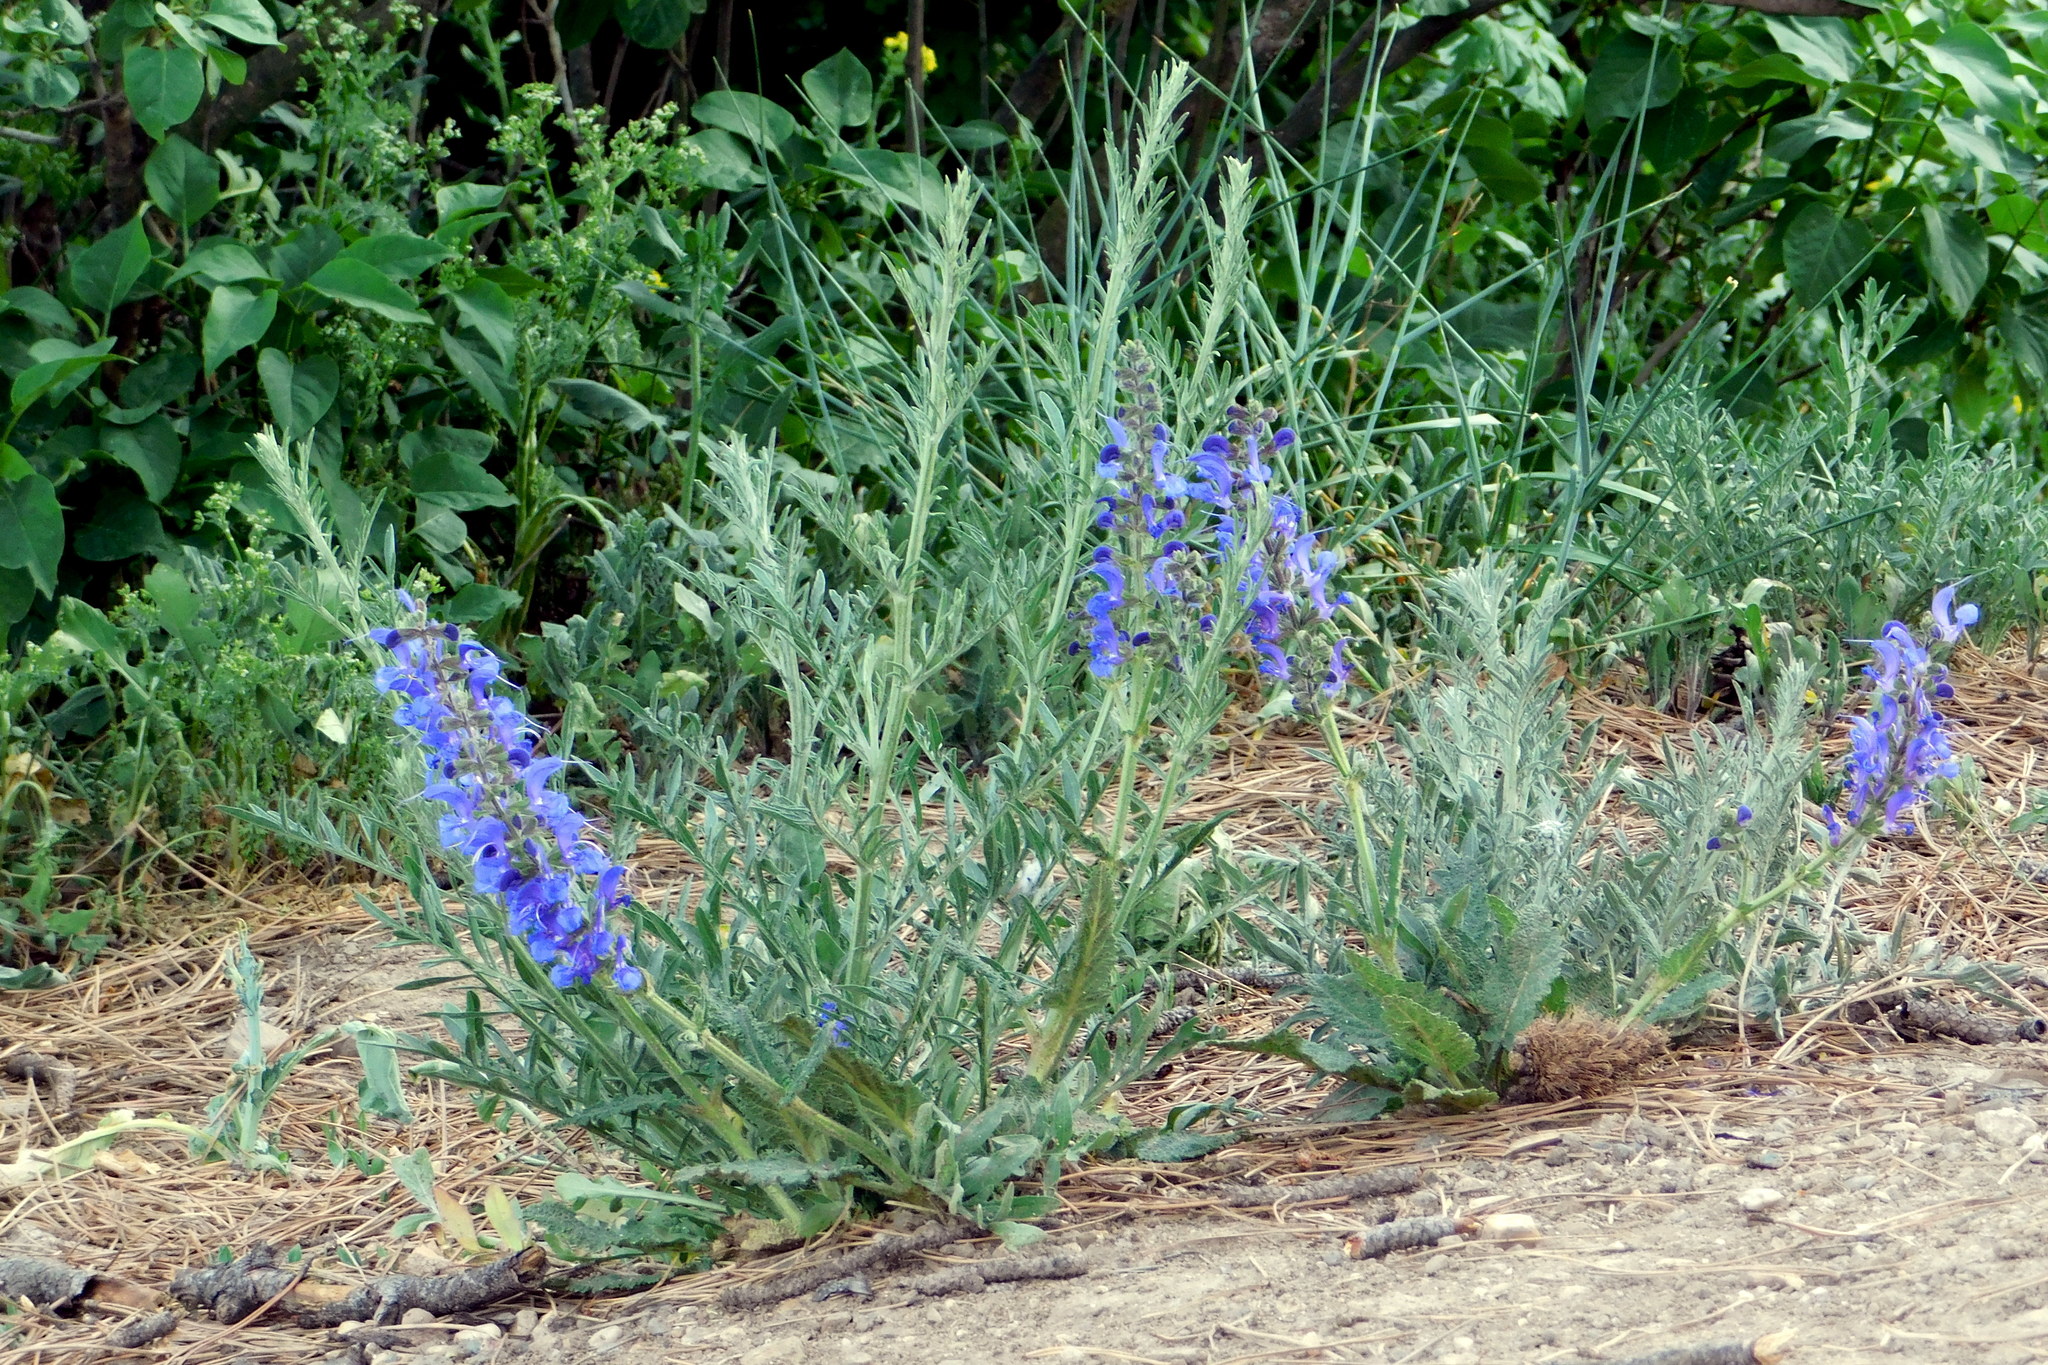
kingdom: Plantae
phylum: Tracheophyta
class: Magnoliopsida
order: Lamiales
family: Lamiaceae
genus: Salvia
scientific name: Salvia pratensis
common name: Meadow sage
